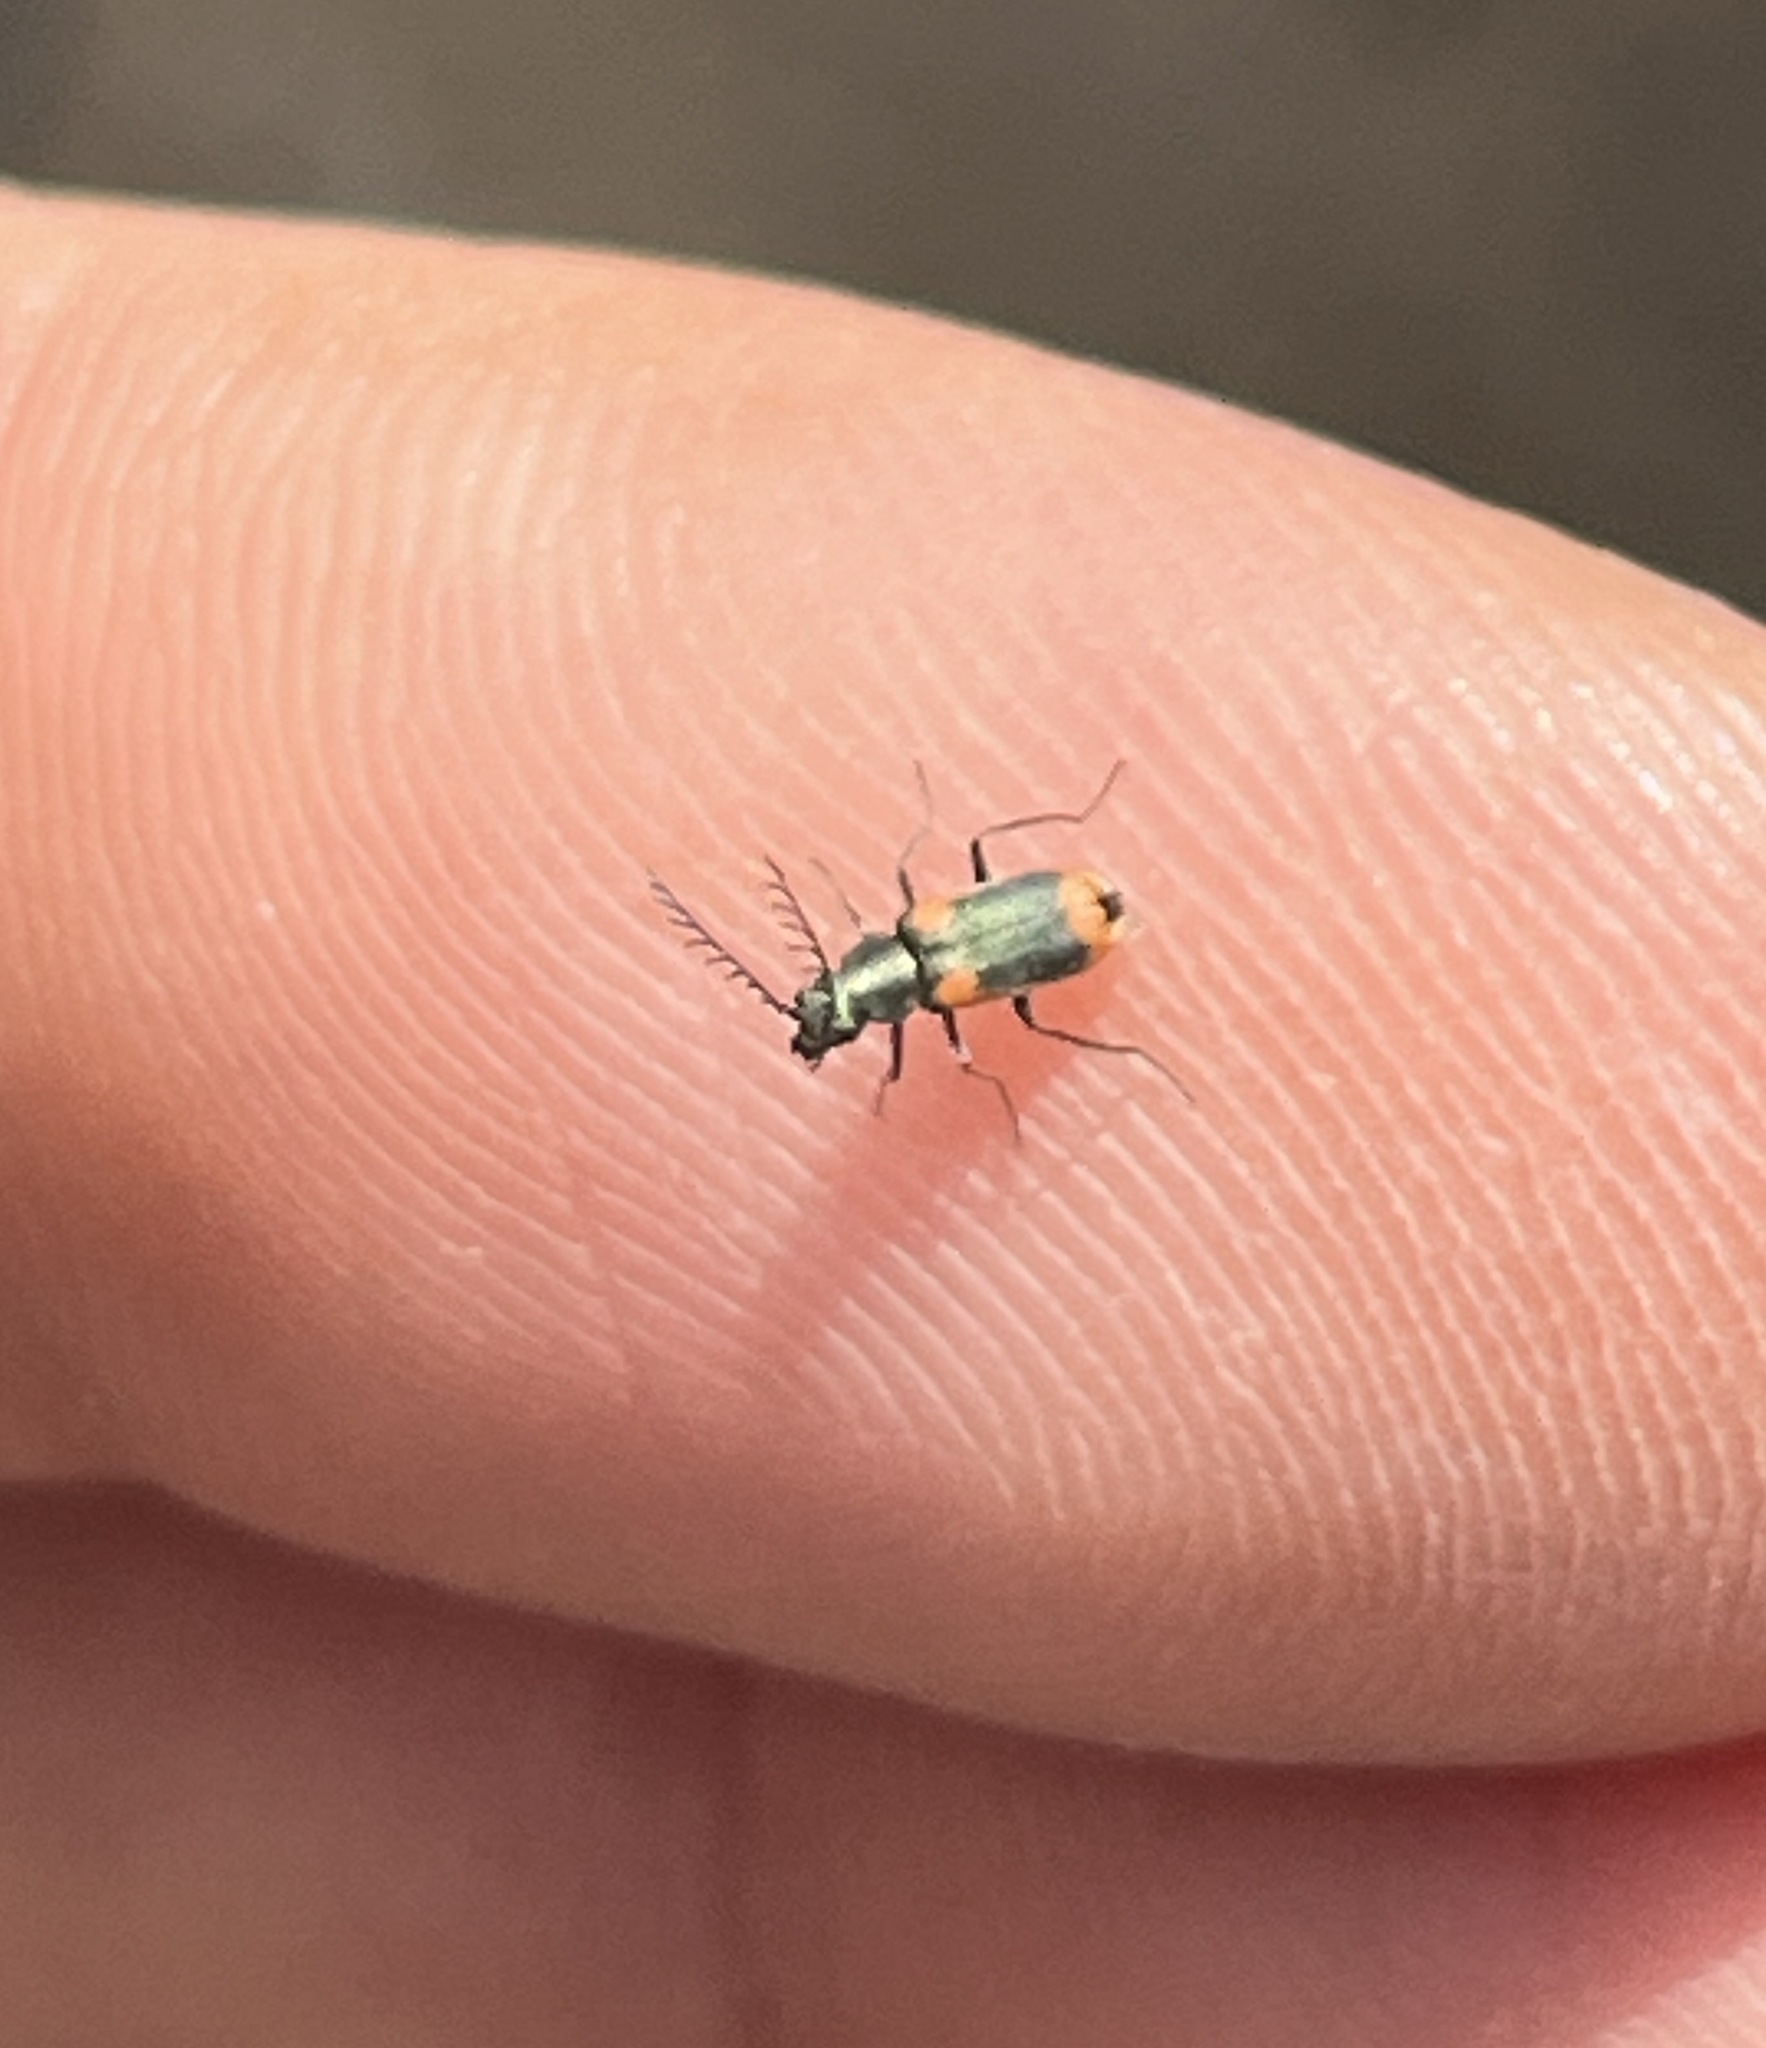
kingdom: Animalia
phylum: Arthropoda
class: Insecta
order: Coleoptera
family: Malachiidae
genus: Clanoptilus
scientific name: Clanoptilus
